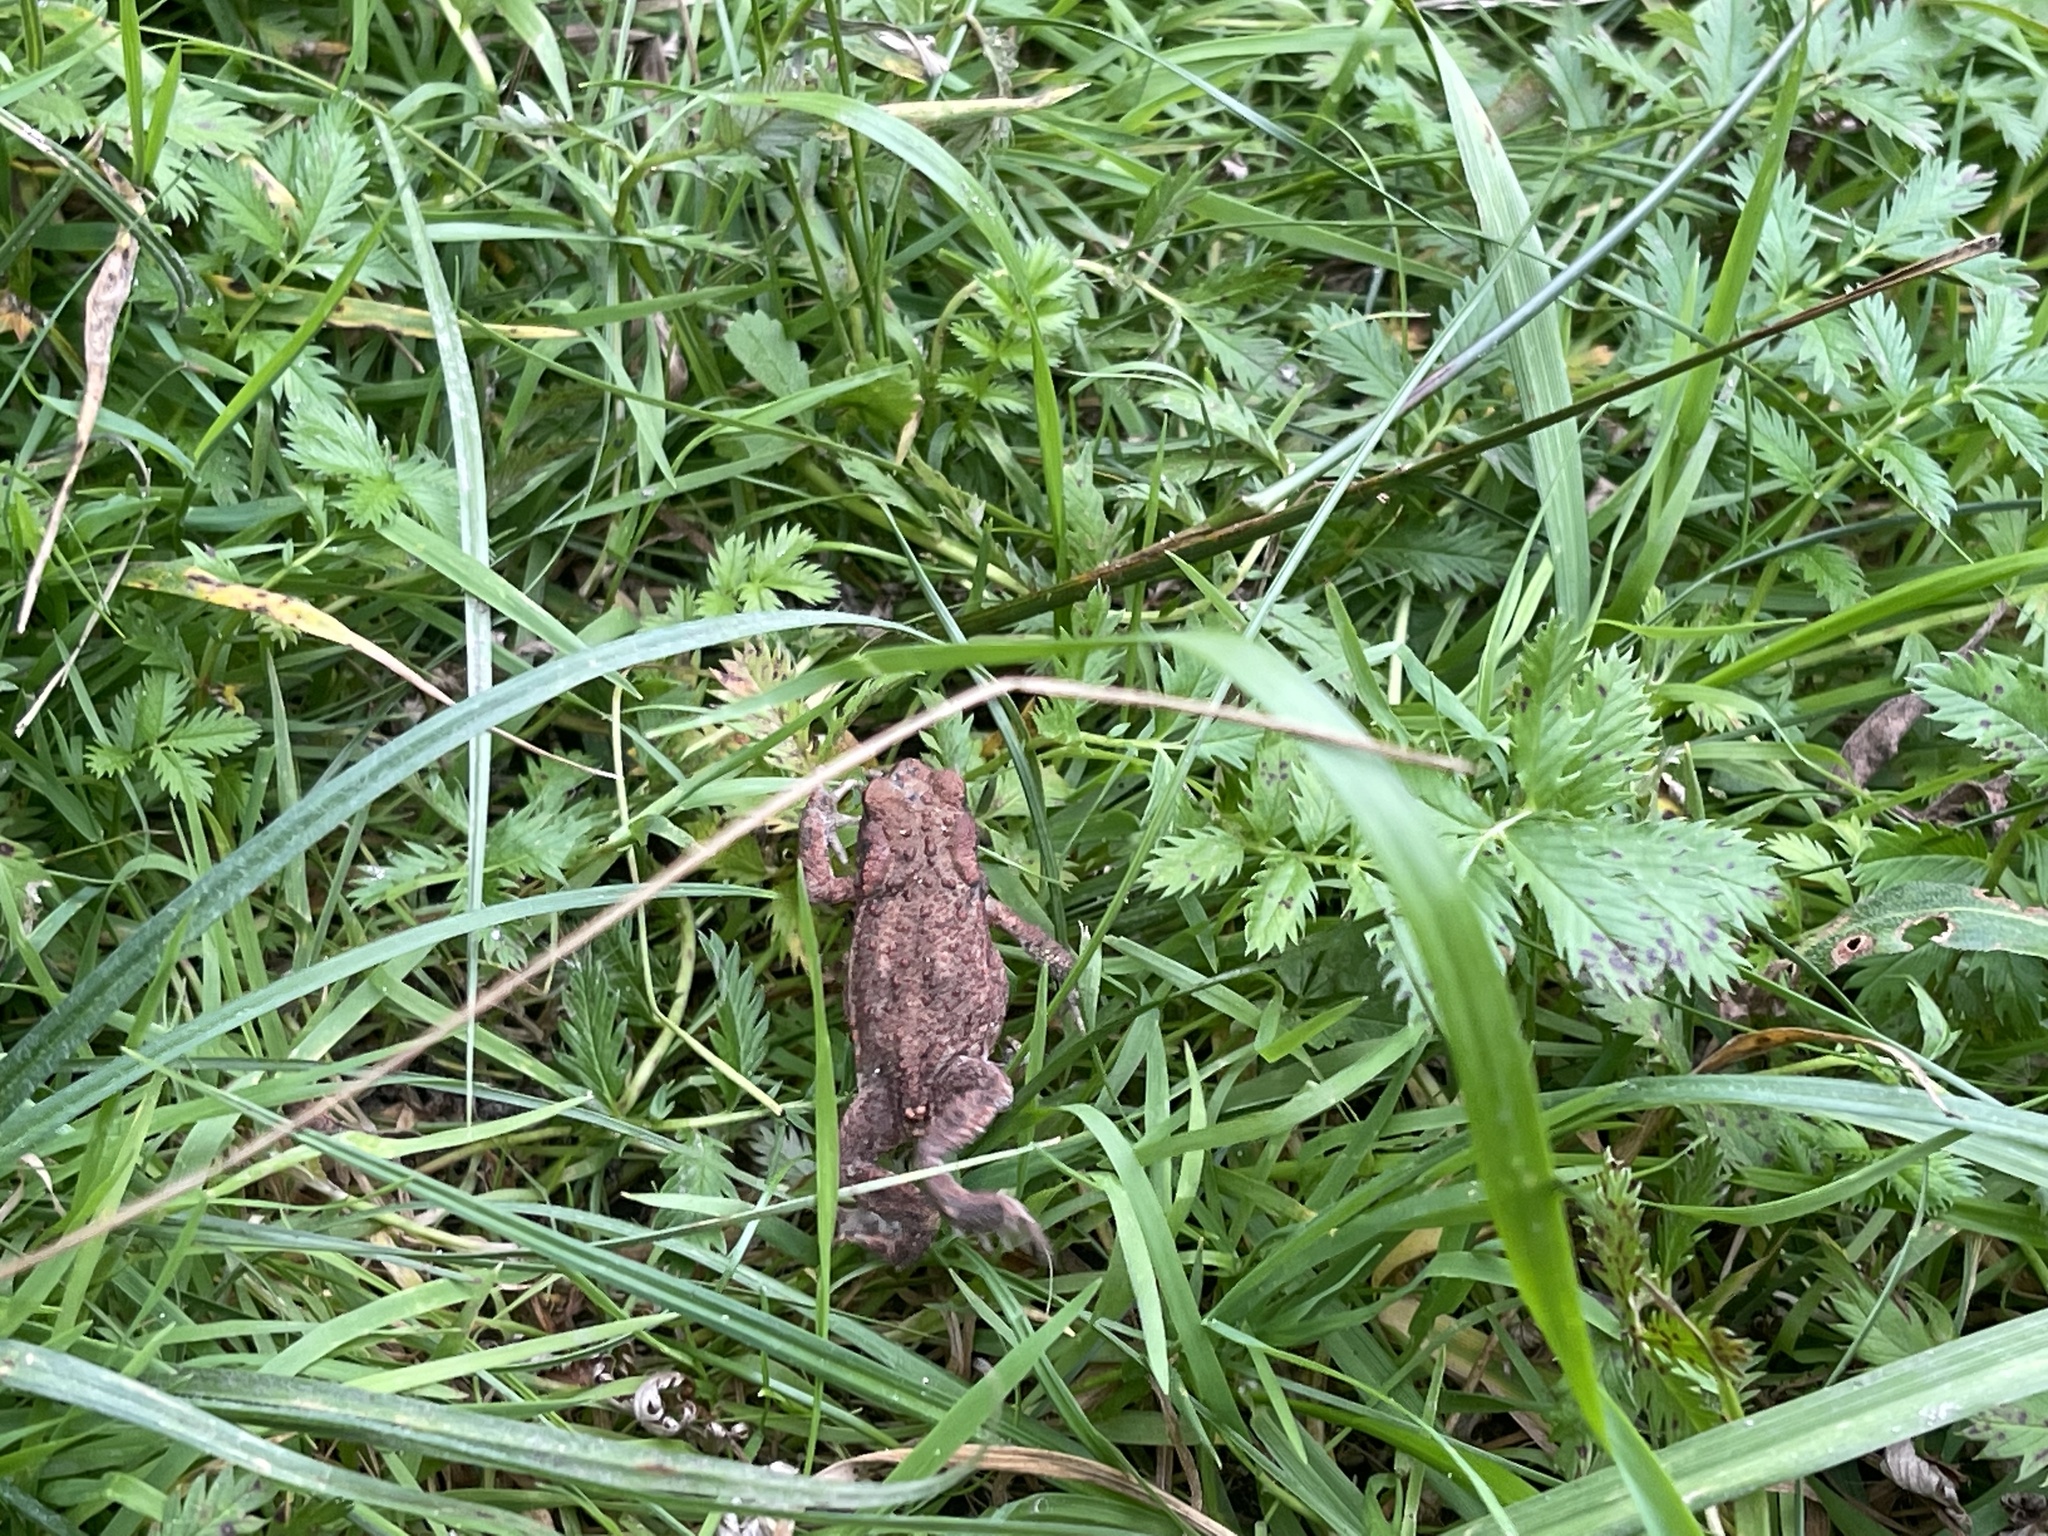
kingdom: Animalia
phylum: Chordata
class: Amphibia
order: Anura
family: Bufonidae
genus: Bufo
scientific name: Bufo bufo
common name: Common toad
